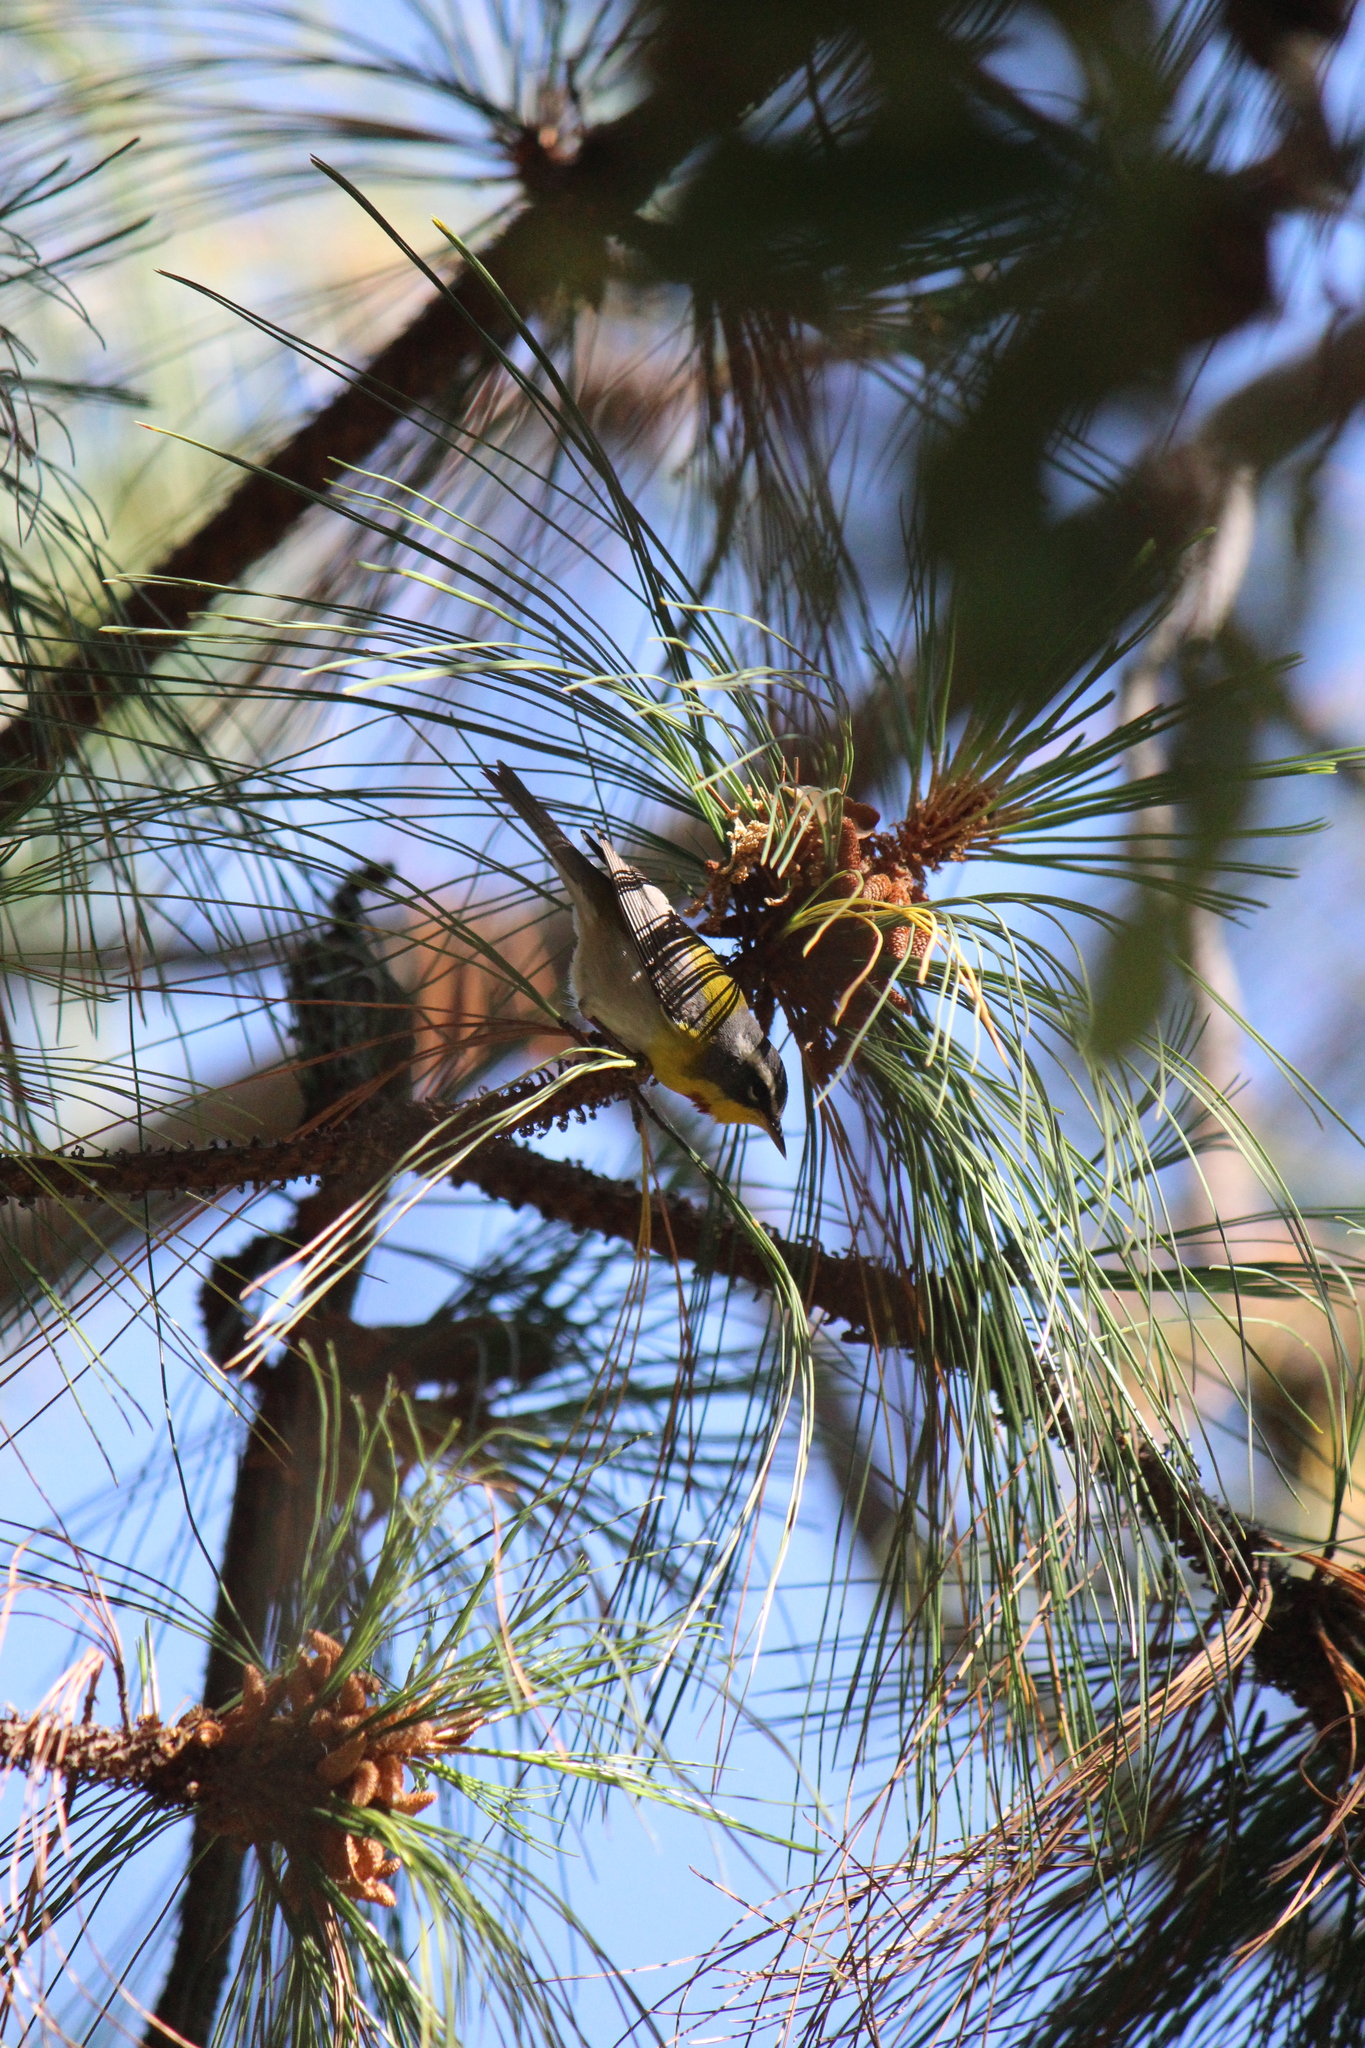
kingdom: Animalia
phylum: Chordata
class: Aves
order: Passeriformes
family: Parulidae
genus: Oreothlypis
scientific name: Oreothlypis superciliosa
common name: Crescent-chested warbler
